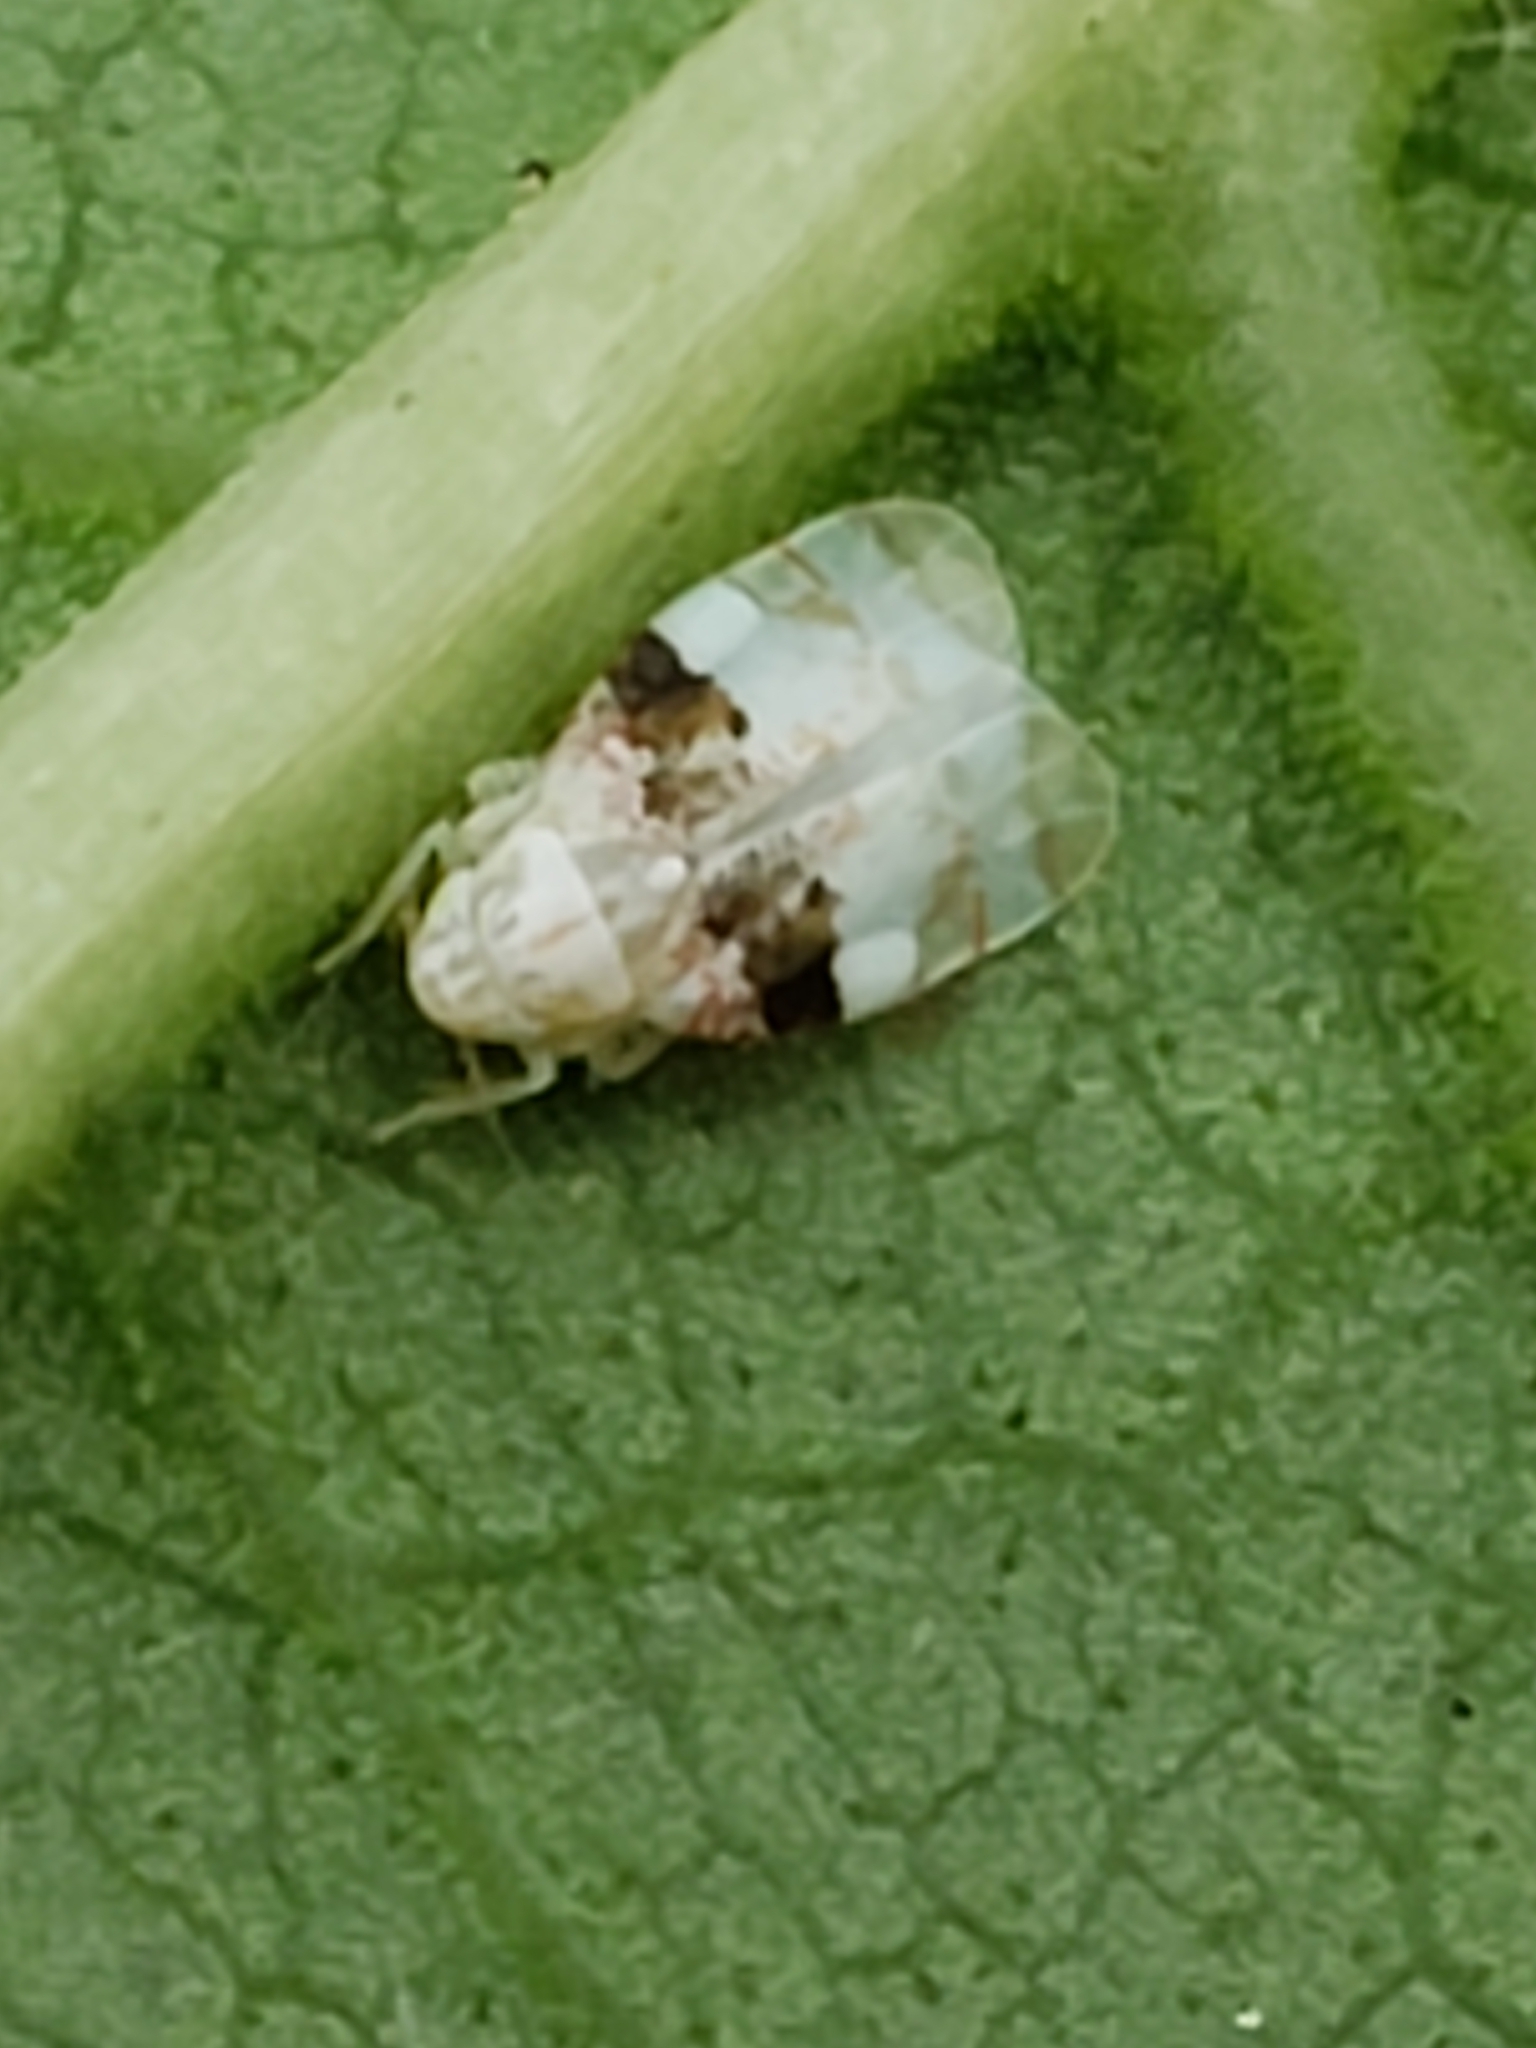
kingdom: Animalia
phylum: Arthropoda
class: Insecta
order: Hemiptera
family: Cicadellidae
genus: Hymetta
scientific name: Hymetta anthisma
